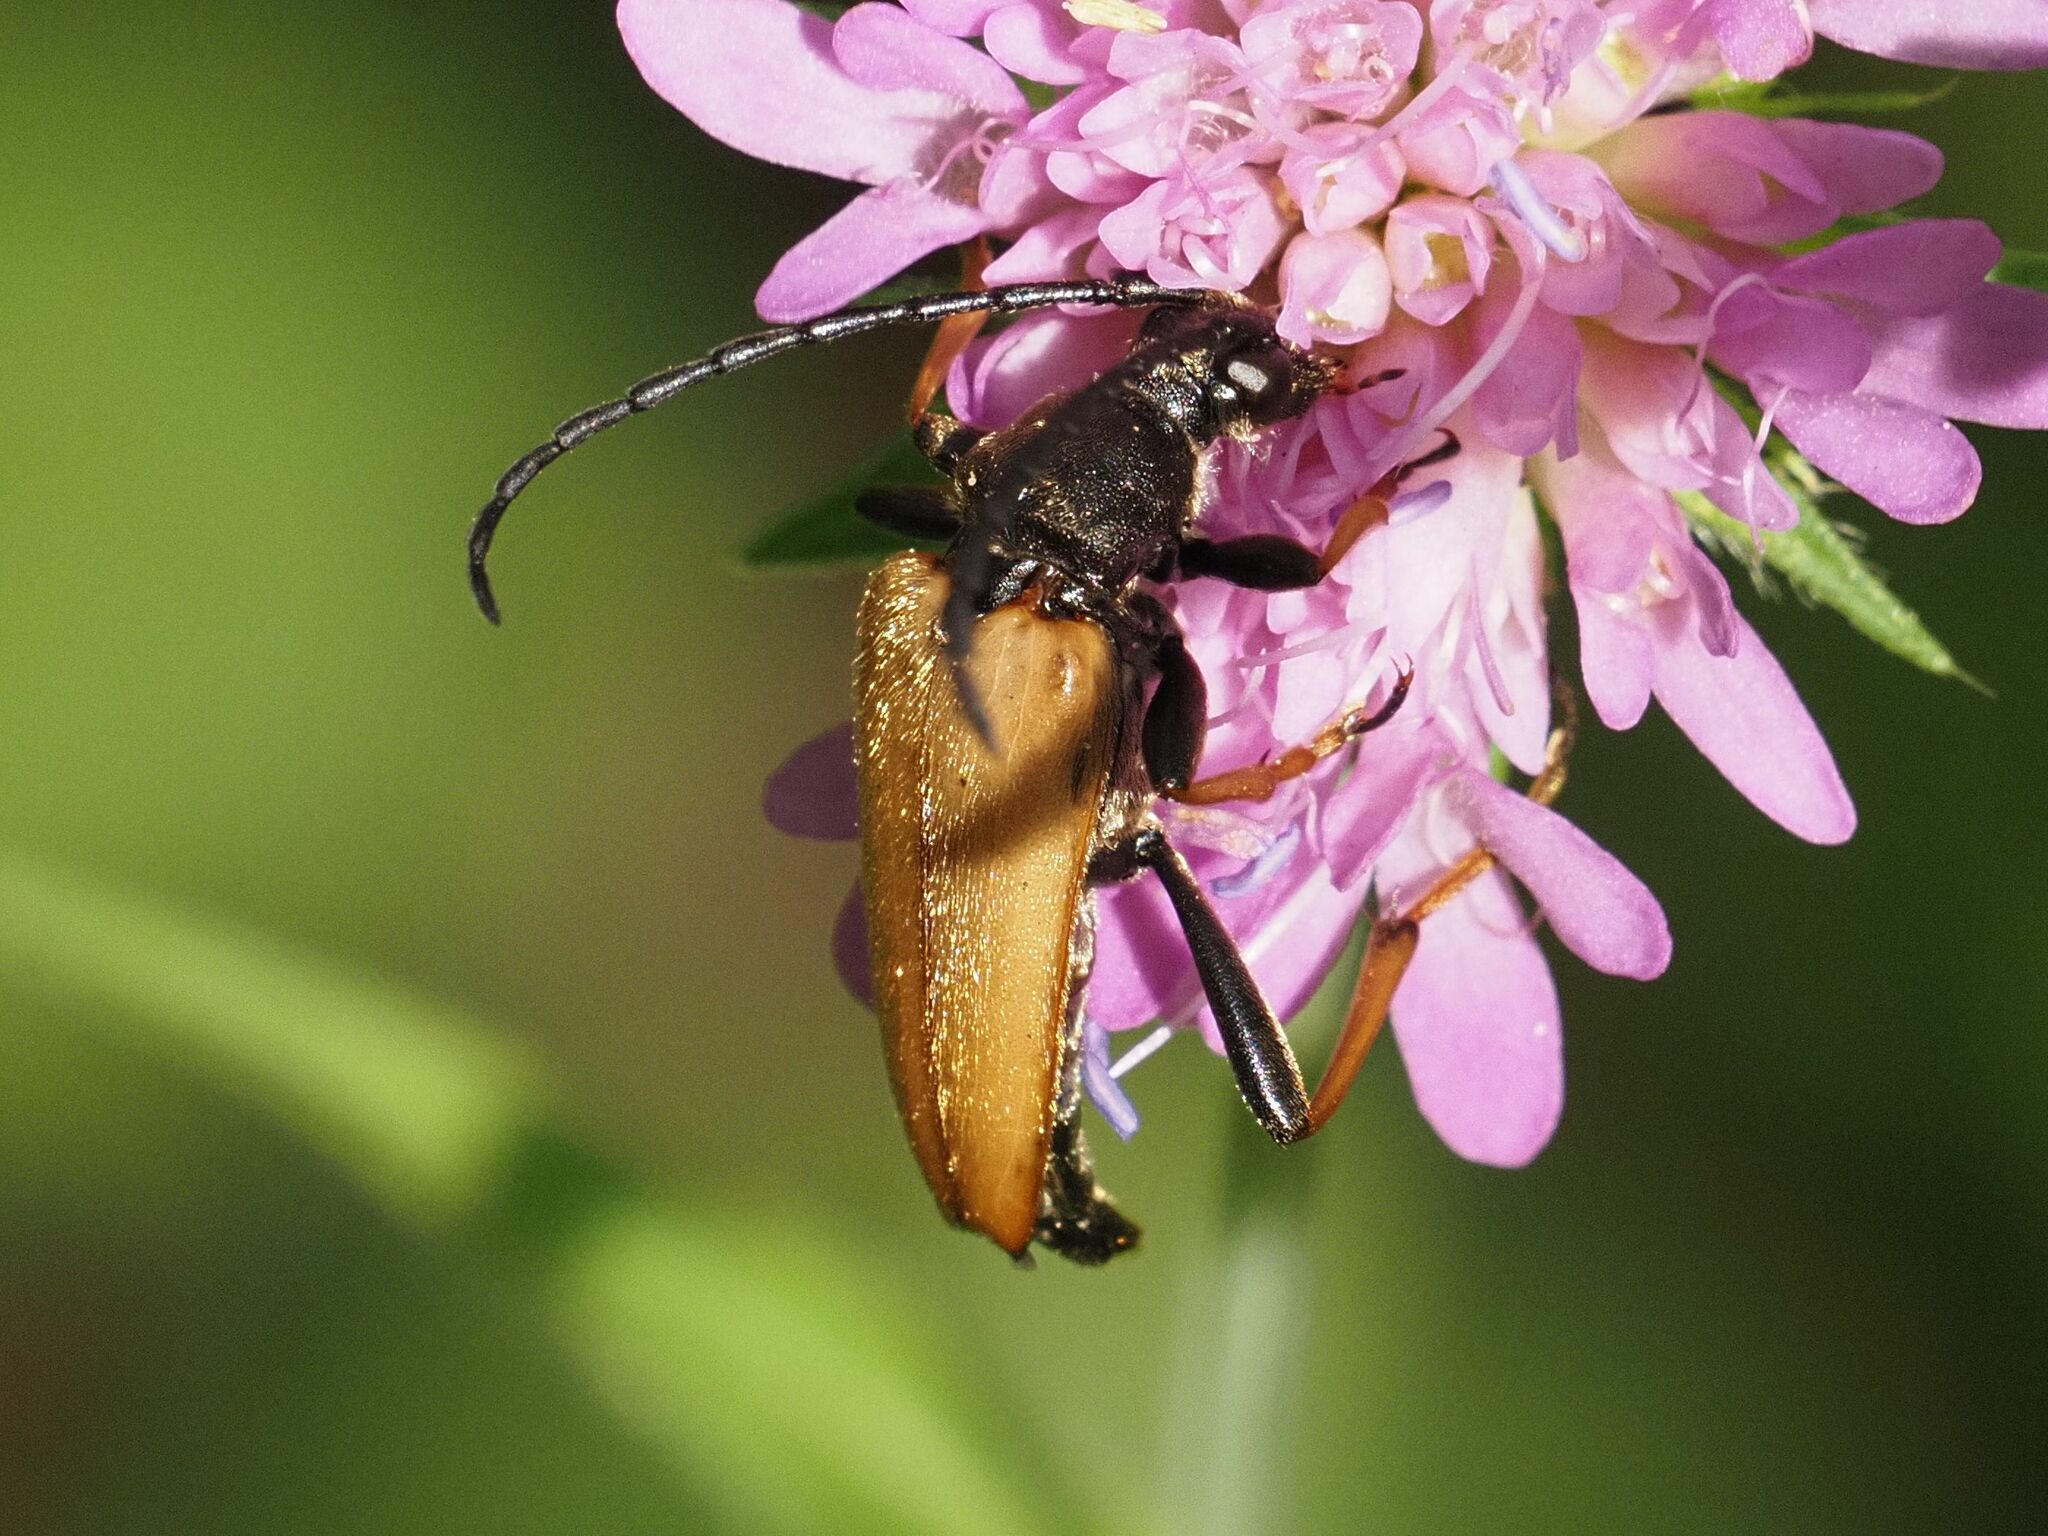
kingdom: Animalia
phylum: Arthropoda
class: Insecta
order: Coleoptera
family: Cerambycidae
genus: Stictoleptura
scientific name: Stictoleptura rubra
